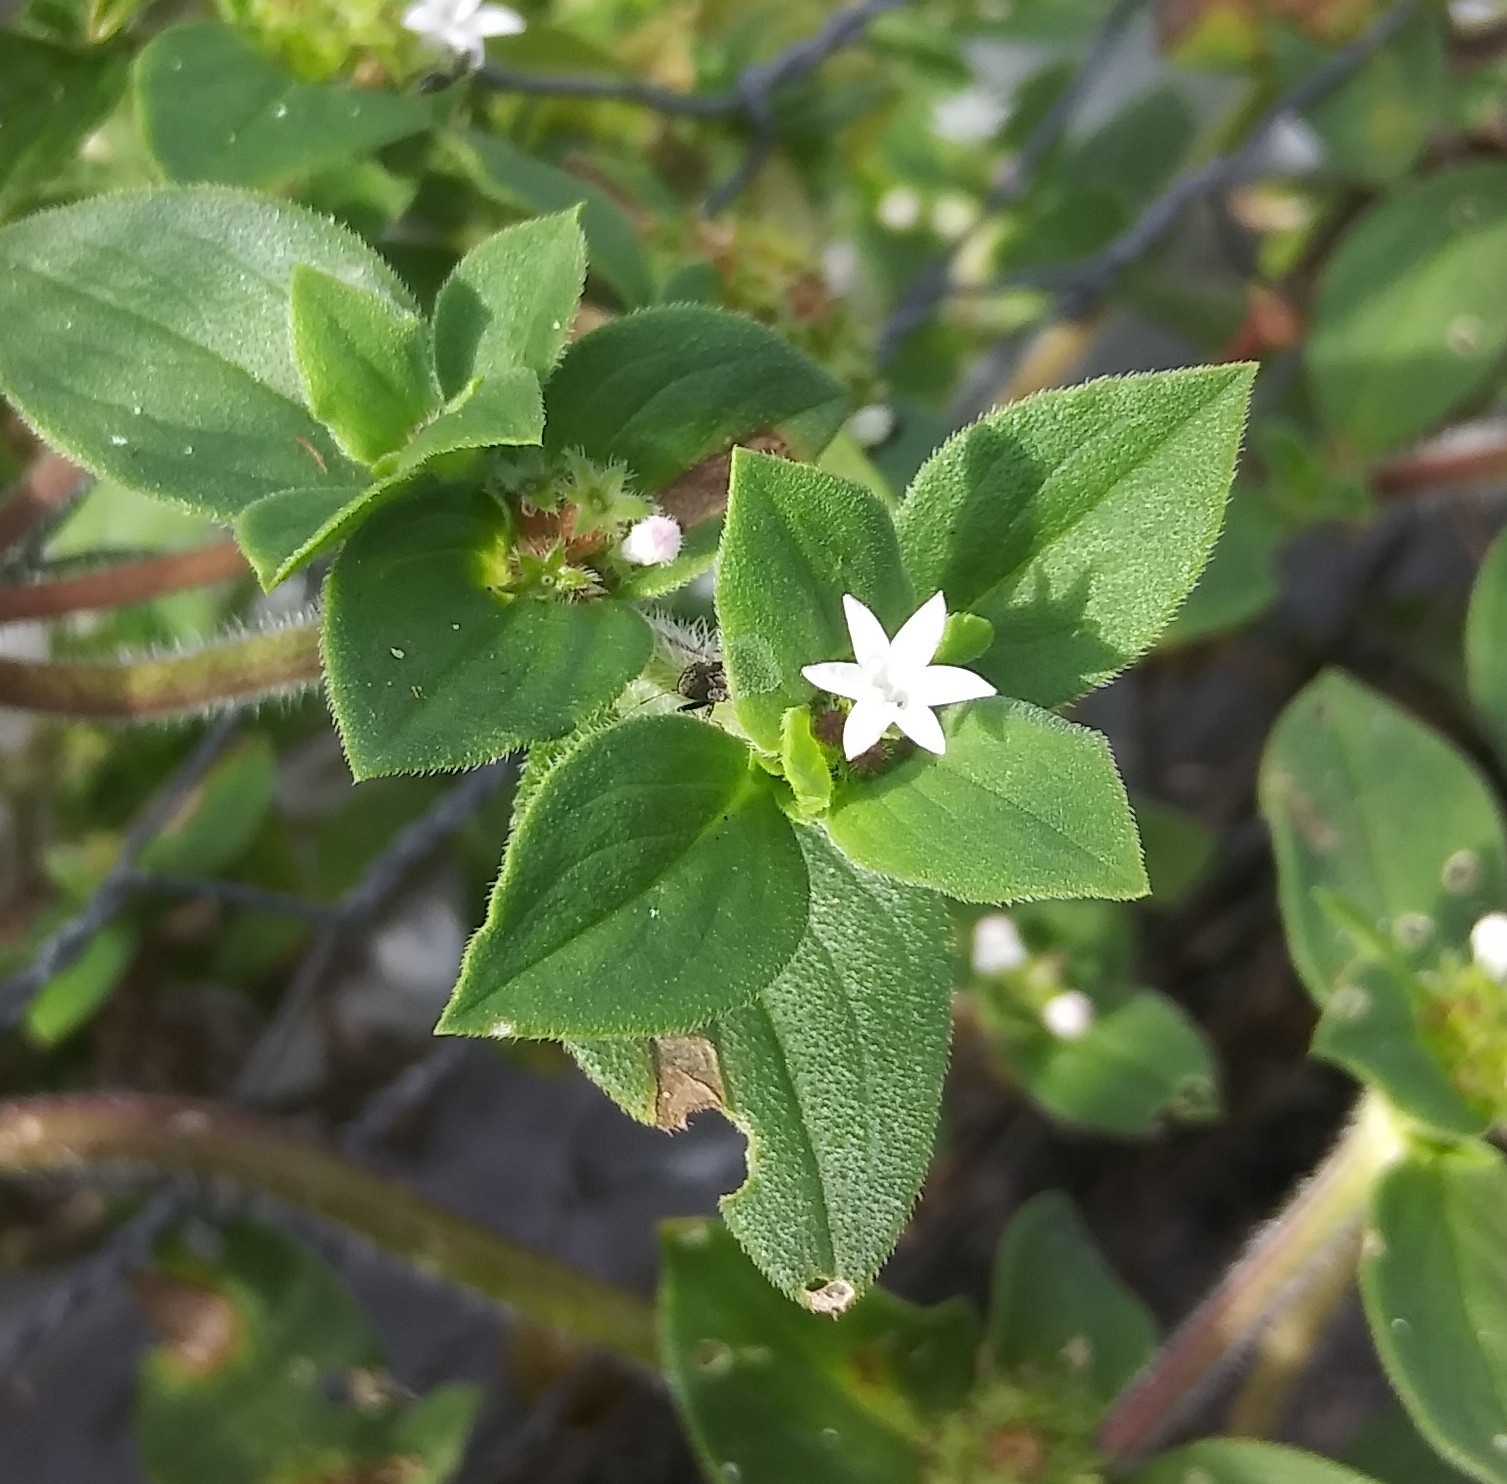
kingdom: Plantae
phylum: Tracheophyta
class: Magnoliopsida
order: Gentianales
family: Rubiaceae
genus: Richardia
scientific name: Richardia scabra
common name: Rough mexican clover
